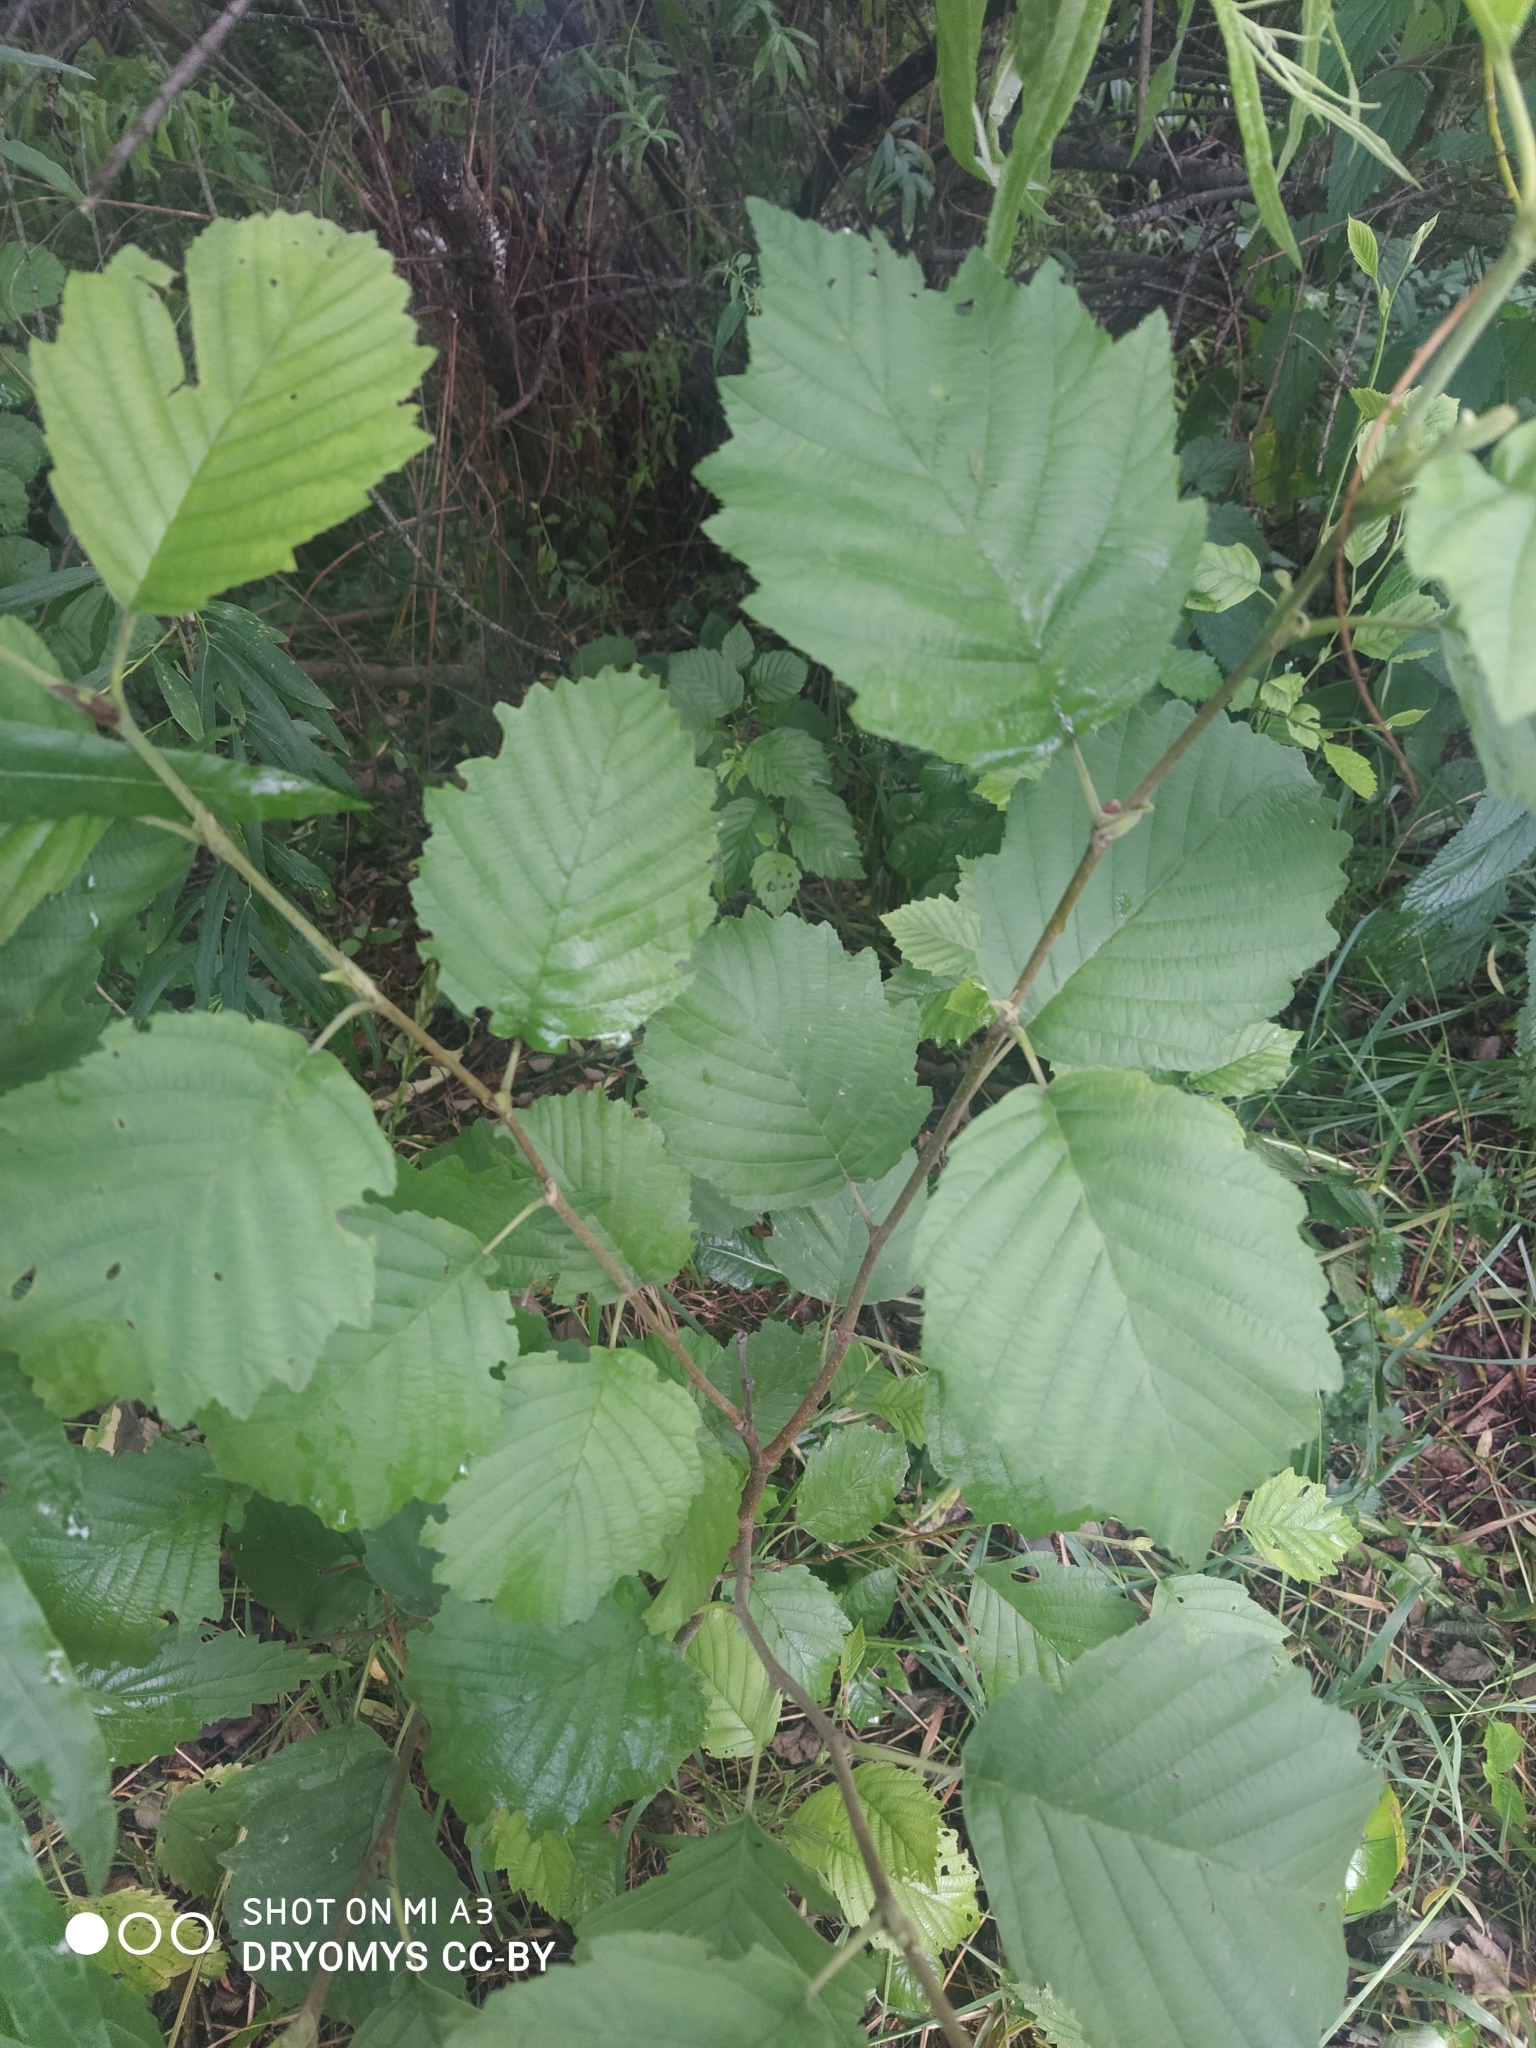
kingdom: Plantae
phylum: Tracheophyta
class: Magnoliopsida
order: Fagales
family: Betulaceae
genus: Alnus
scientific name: Alnus incana
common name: Grey alder
